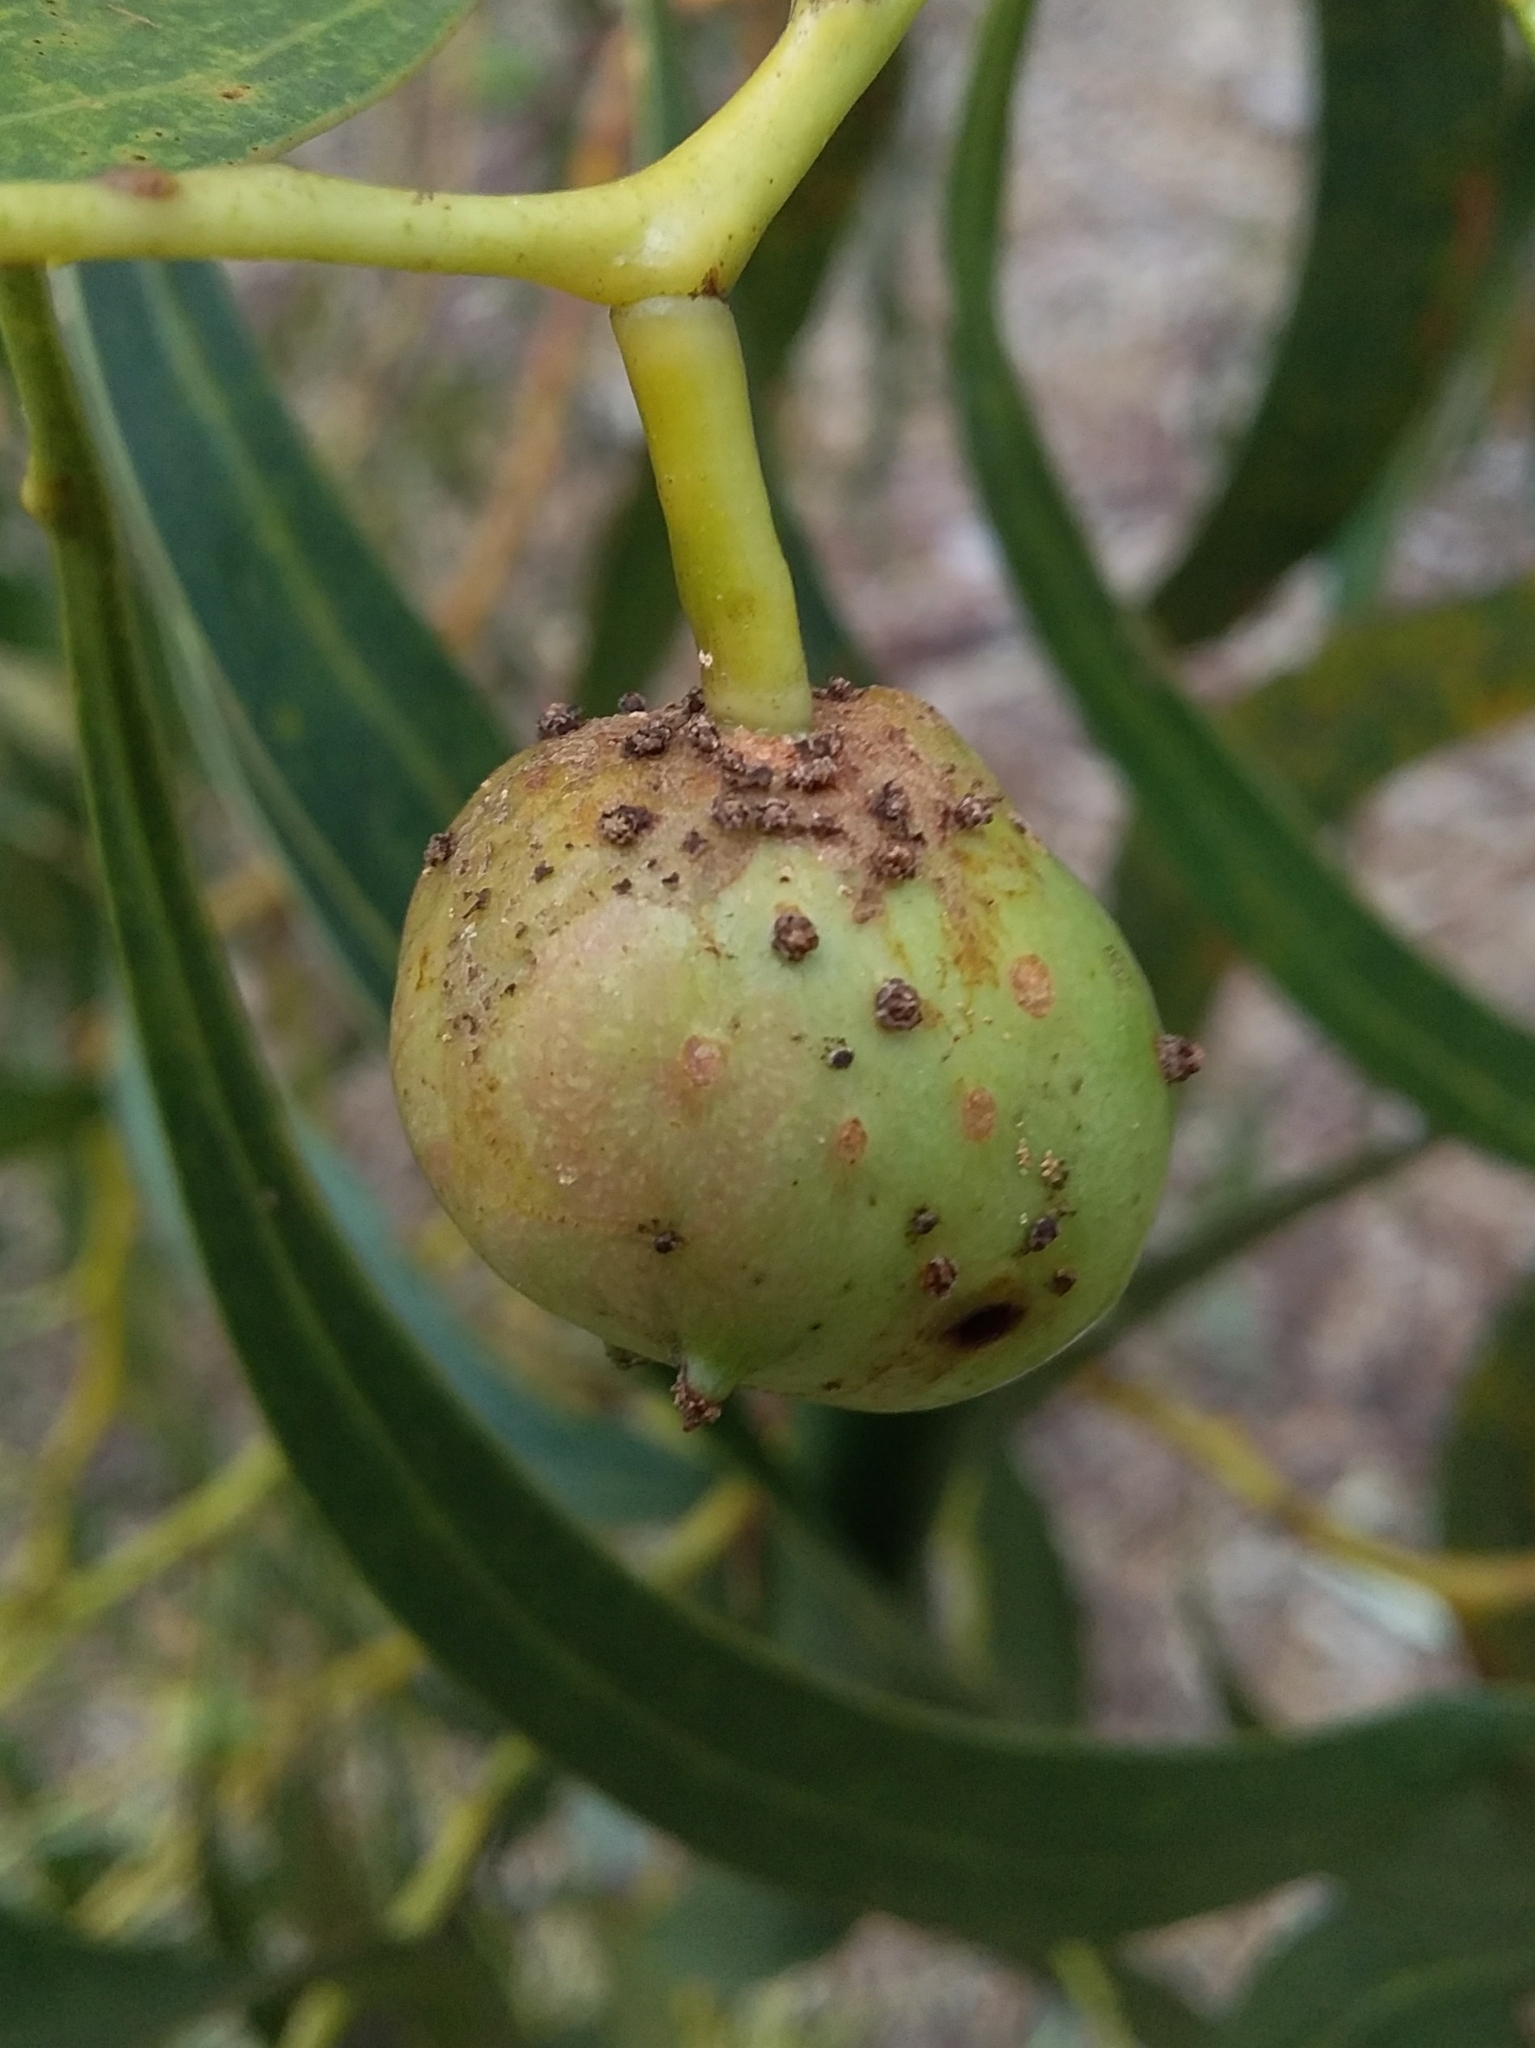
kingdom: Animalia
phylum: Arthropoda
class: Insecta
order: Hymenoptera
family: Pteromalidae
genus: Trichilogaster
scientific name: Trichilogaster signiventris
